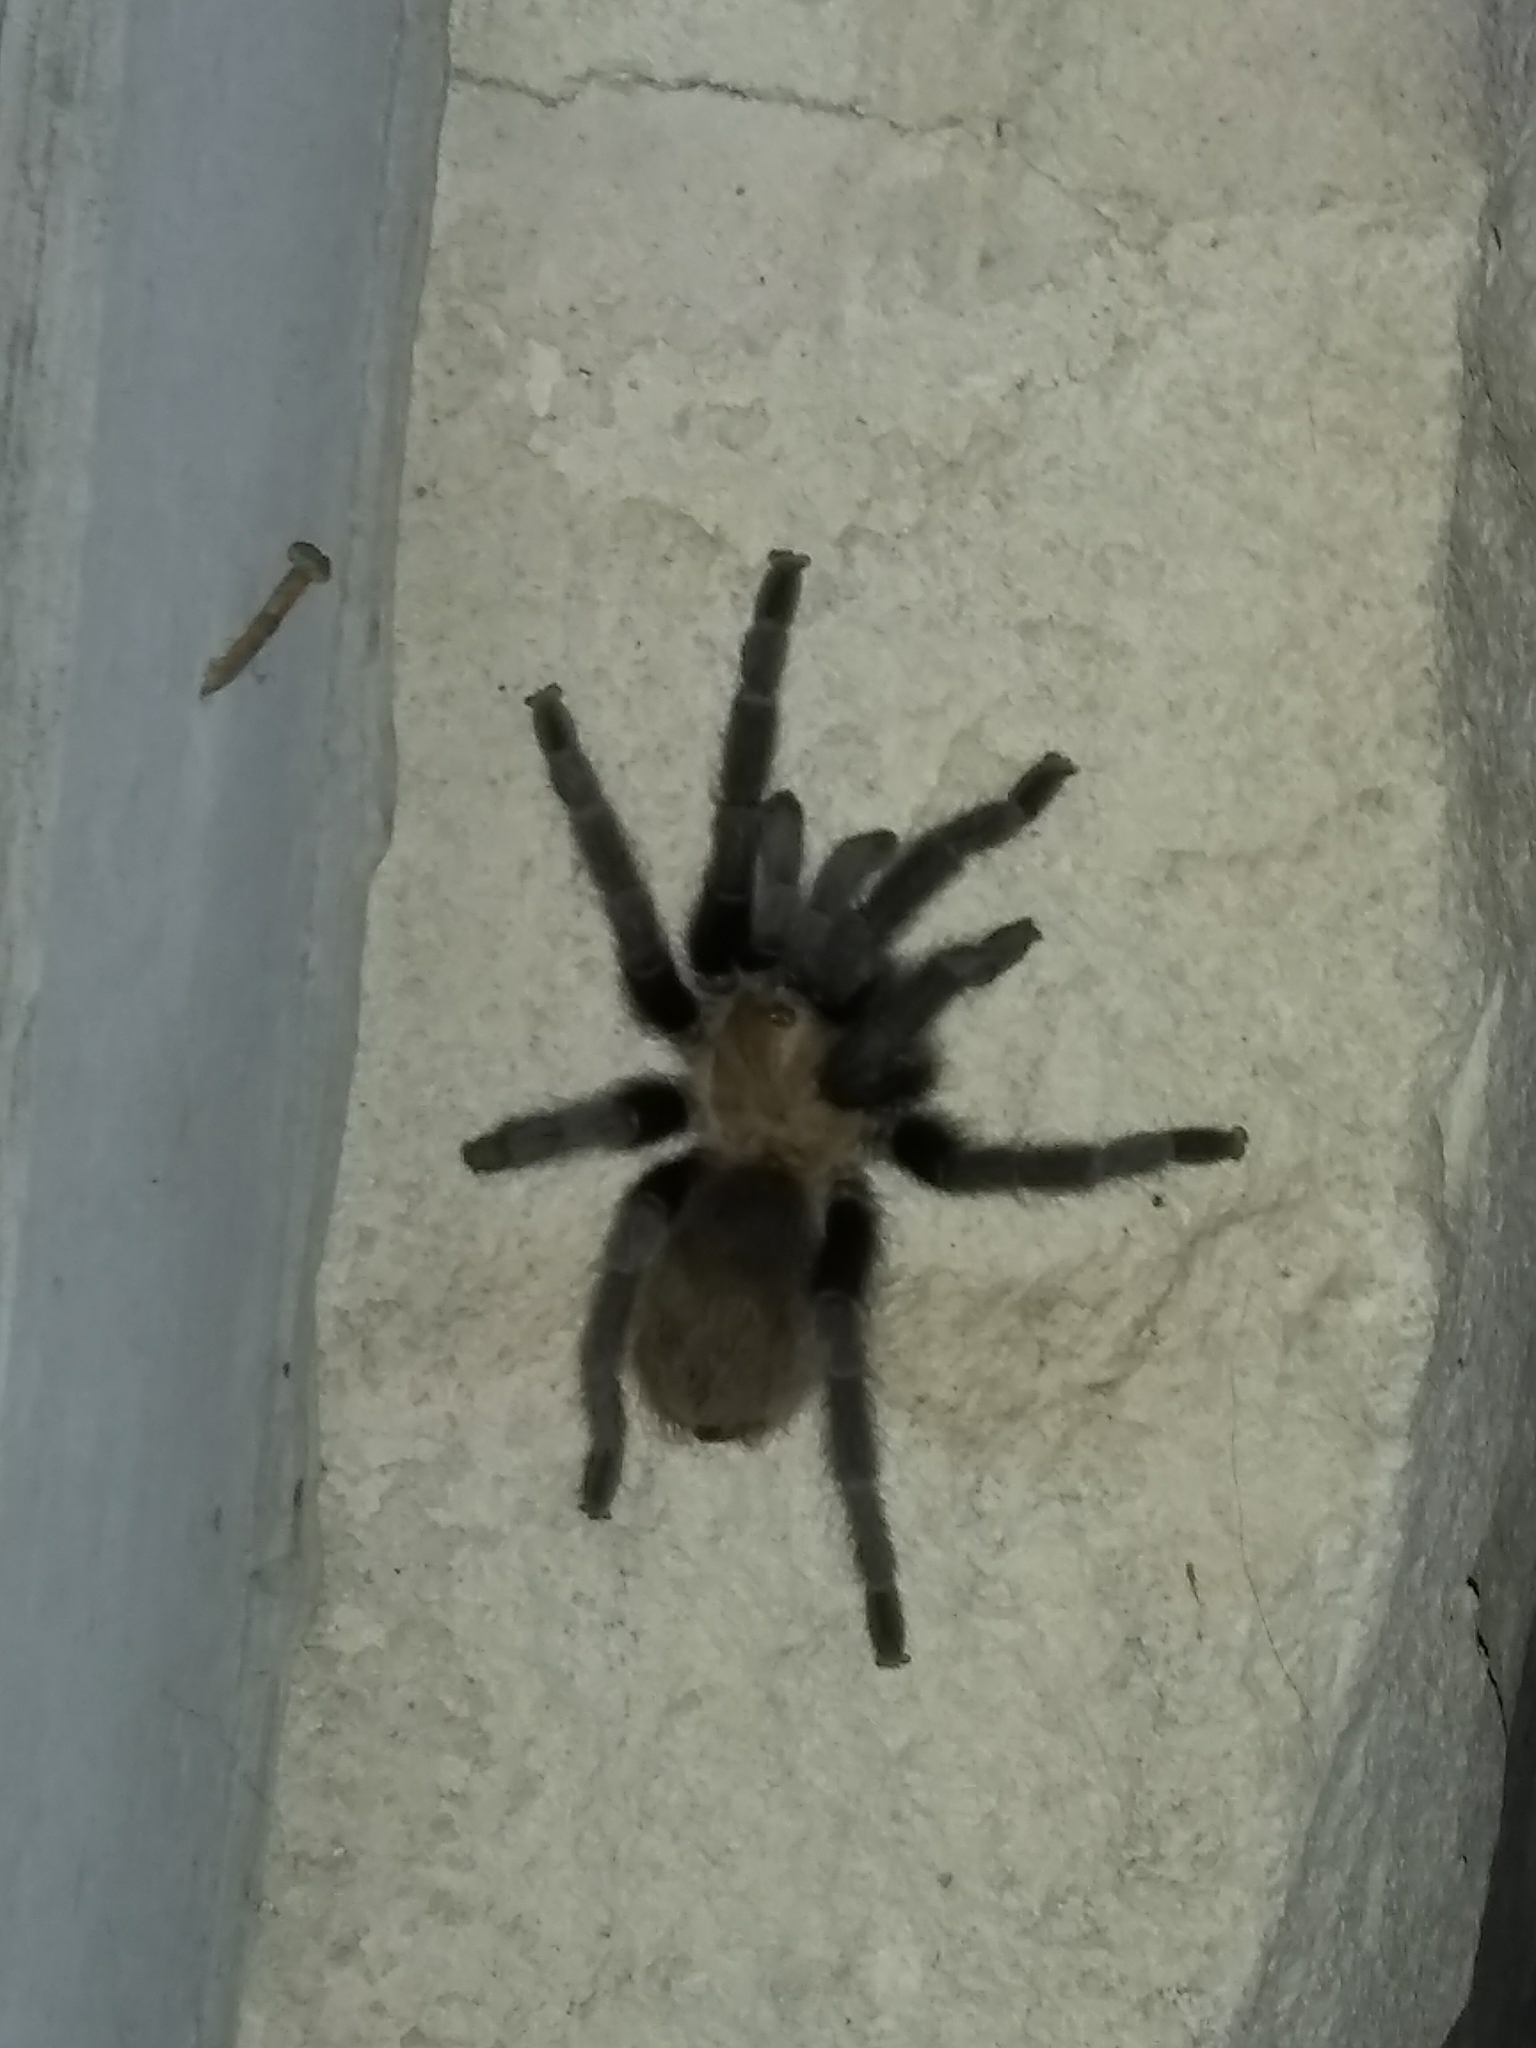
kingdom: Animalia
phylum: Arthropoda
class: Arachnida
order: Araneae
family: Theraphosidae
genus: Aphonopelma
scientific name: Aphonopelma anax
